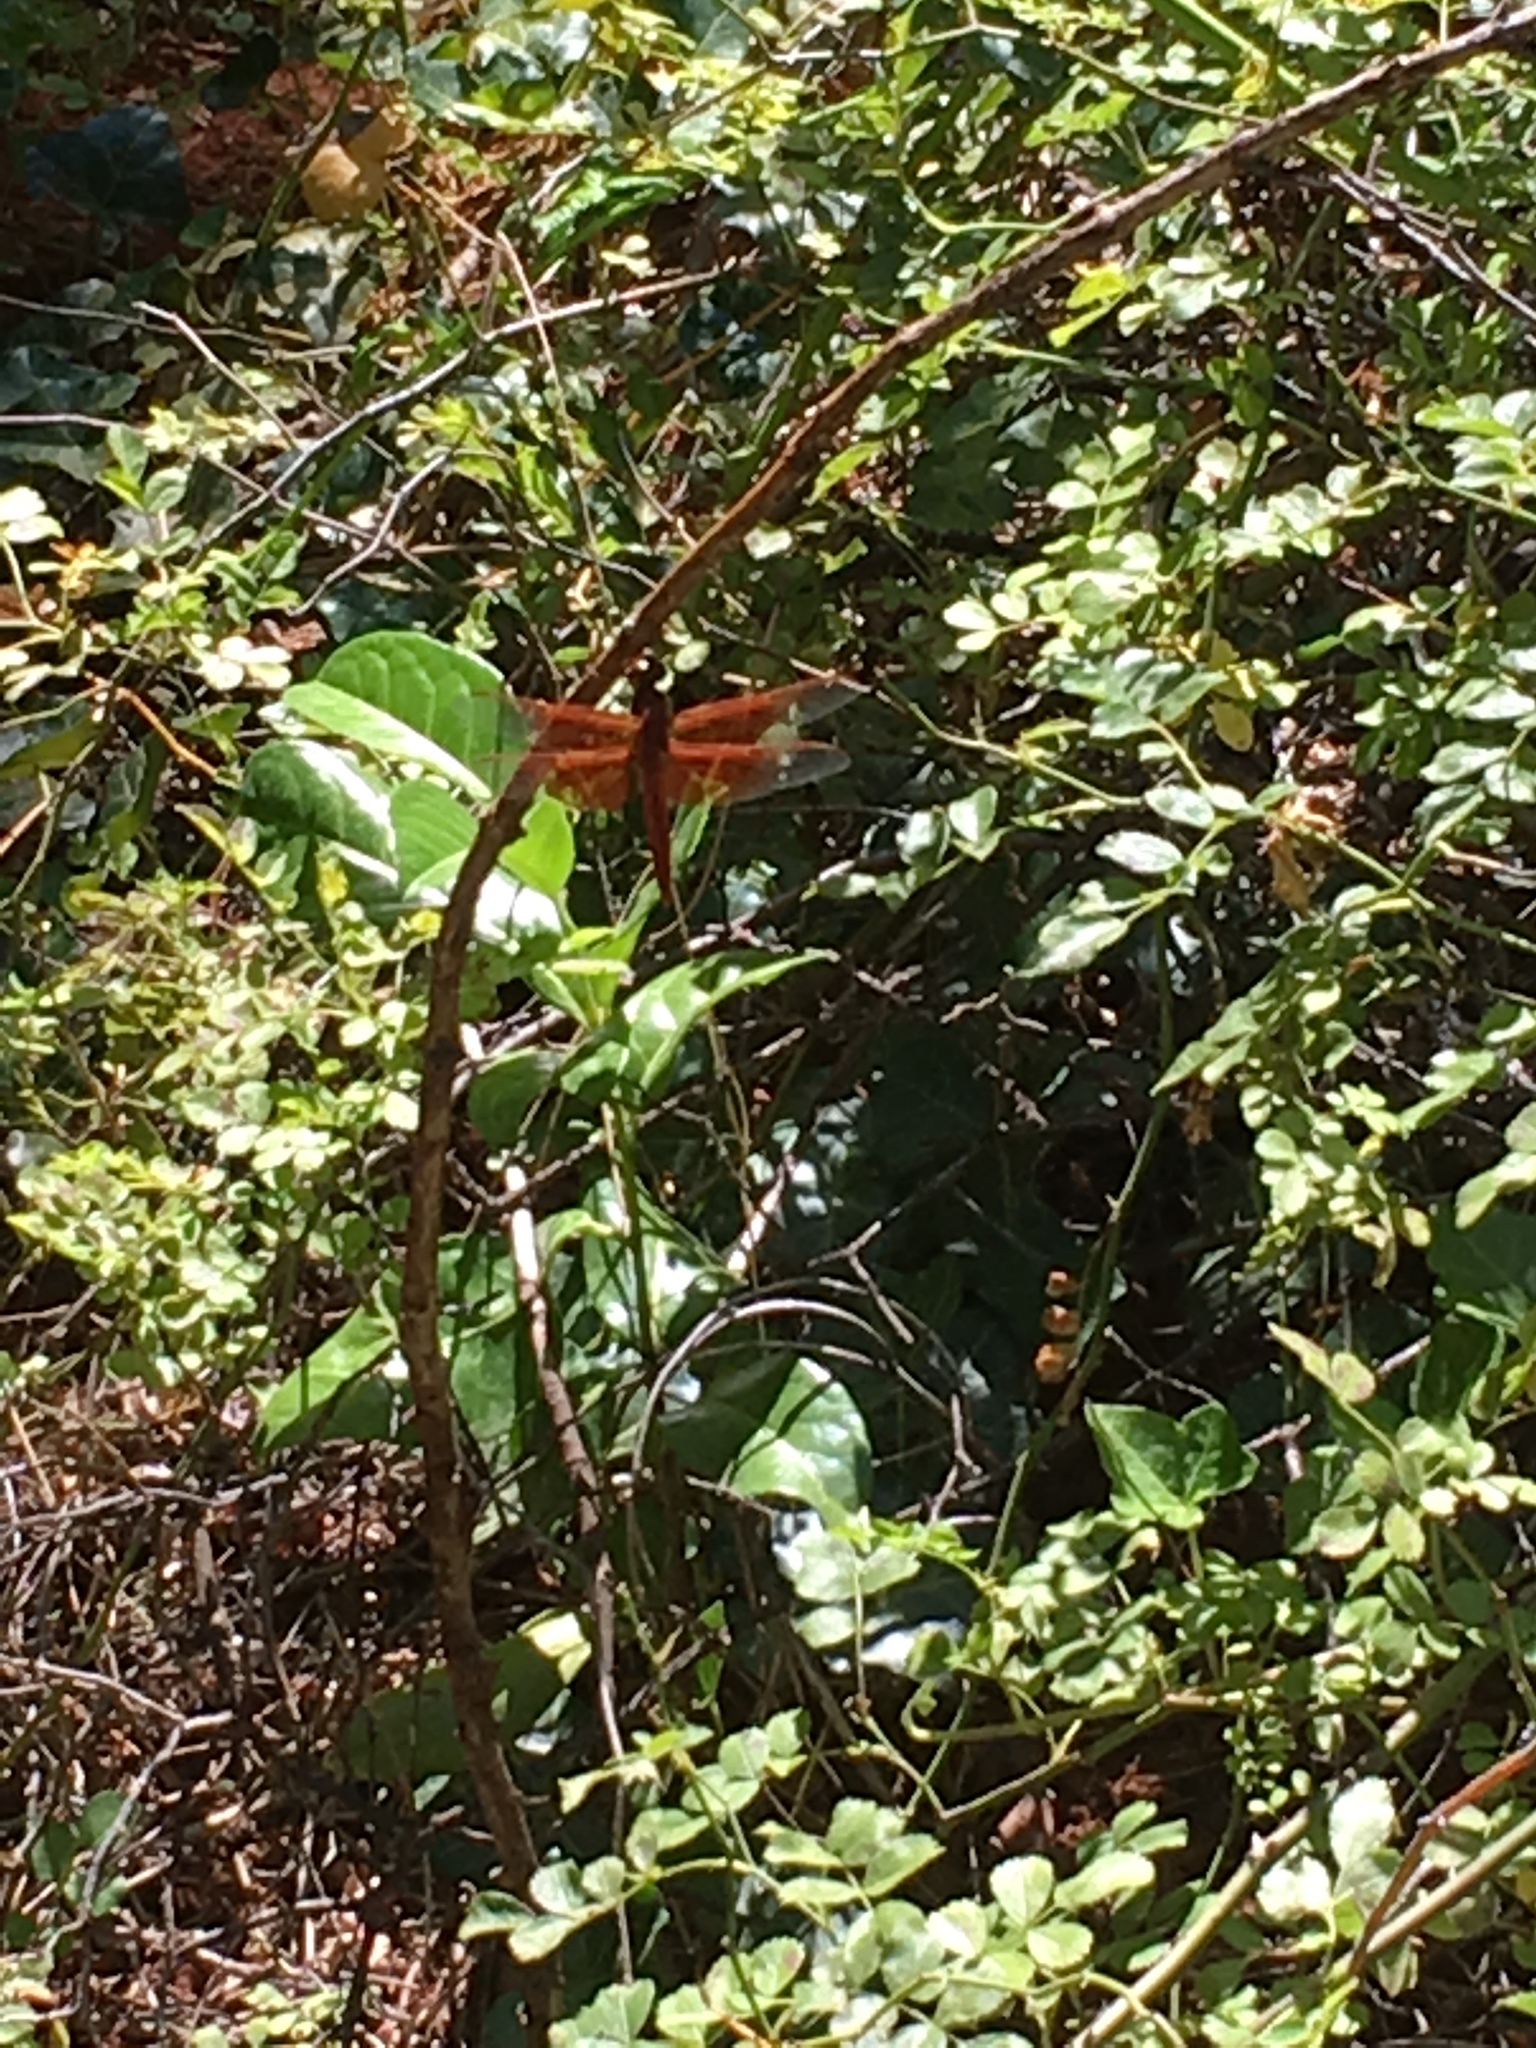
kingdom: Animalia
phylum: Arthropoda
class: Insecta
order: Odonata
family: Libellulidae
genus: Libellula
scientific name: Libellula saturata
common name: Flame skimmer
